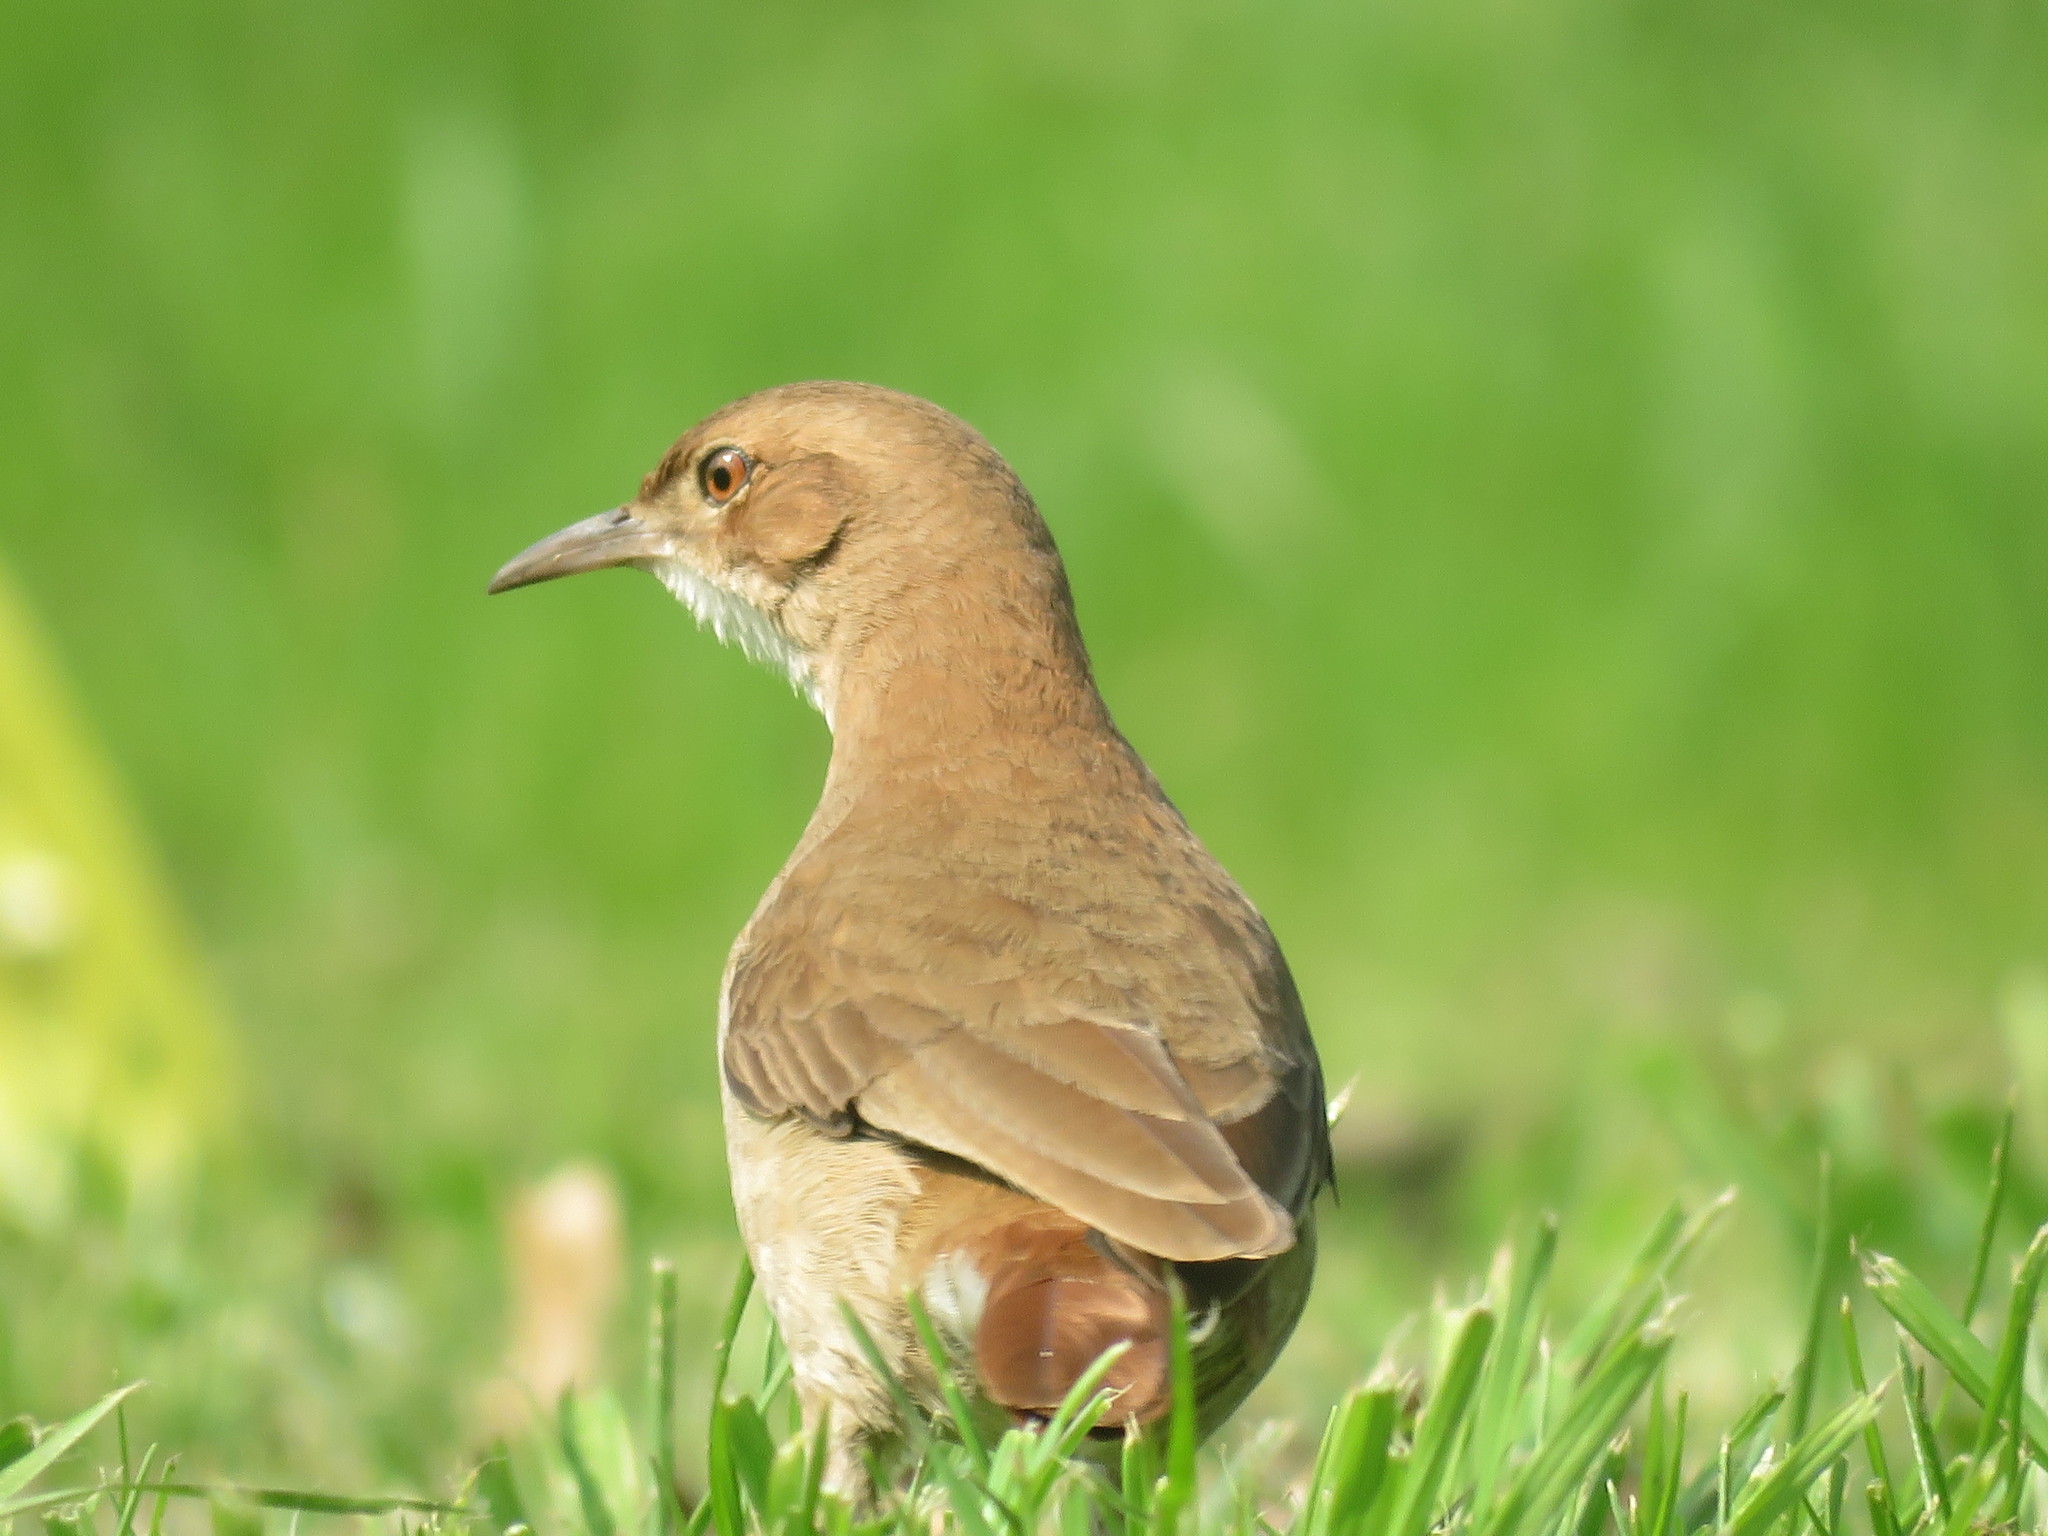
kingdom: Animalia
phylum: Chordata
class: Aves
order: Passeriformes
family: Furnariidae
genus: Furnarius
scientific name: Furnarius rufus
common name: Rufous hornero
